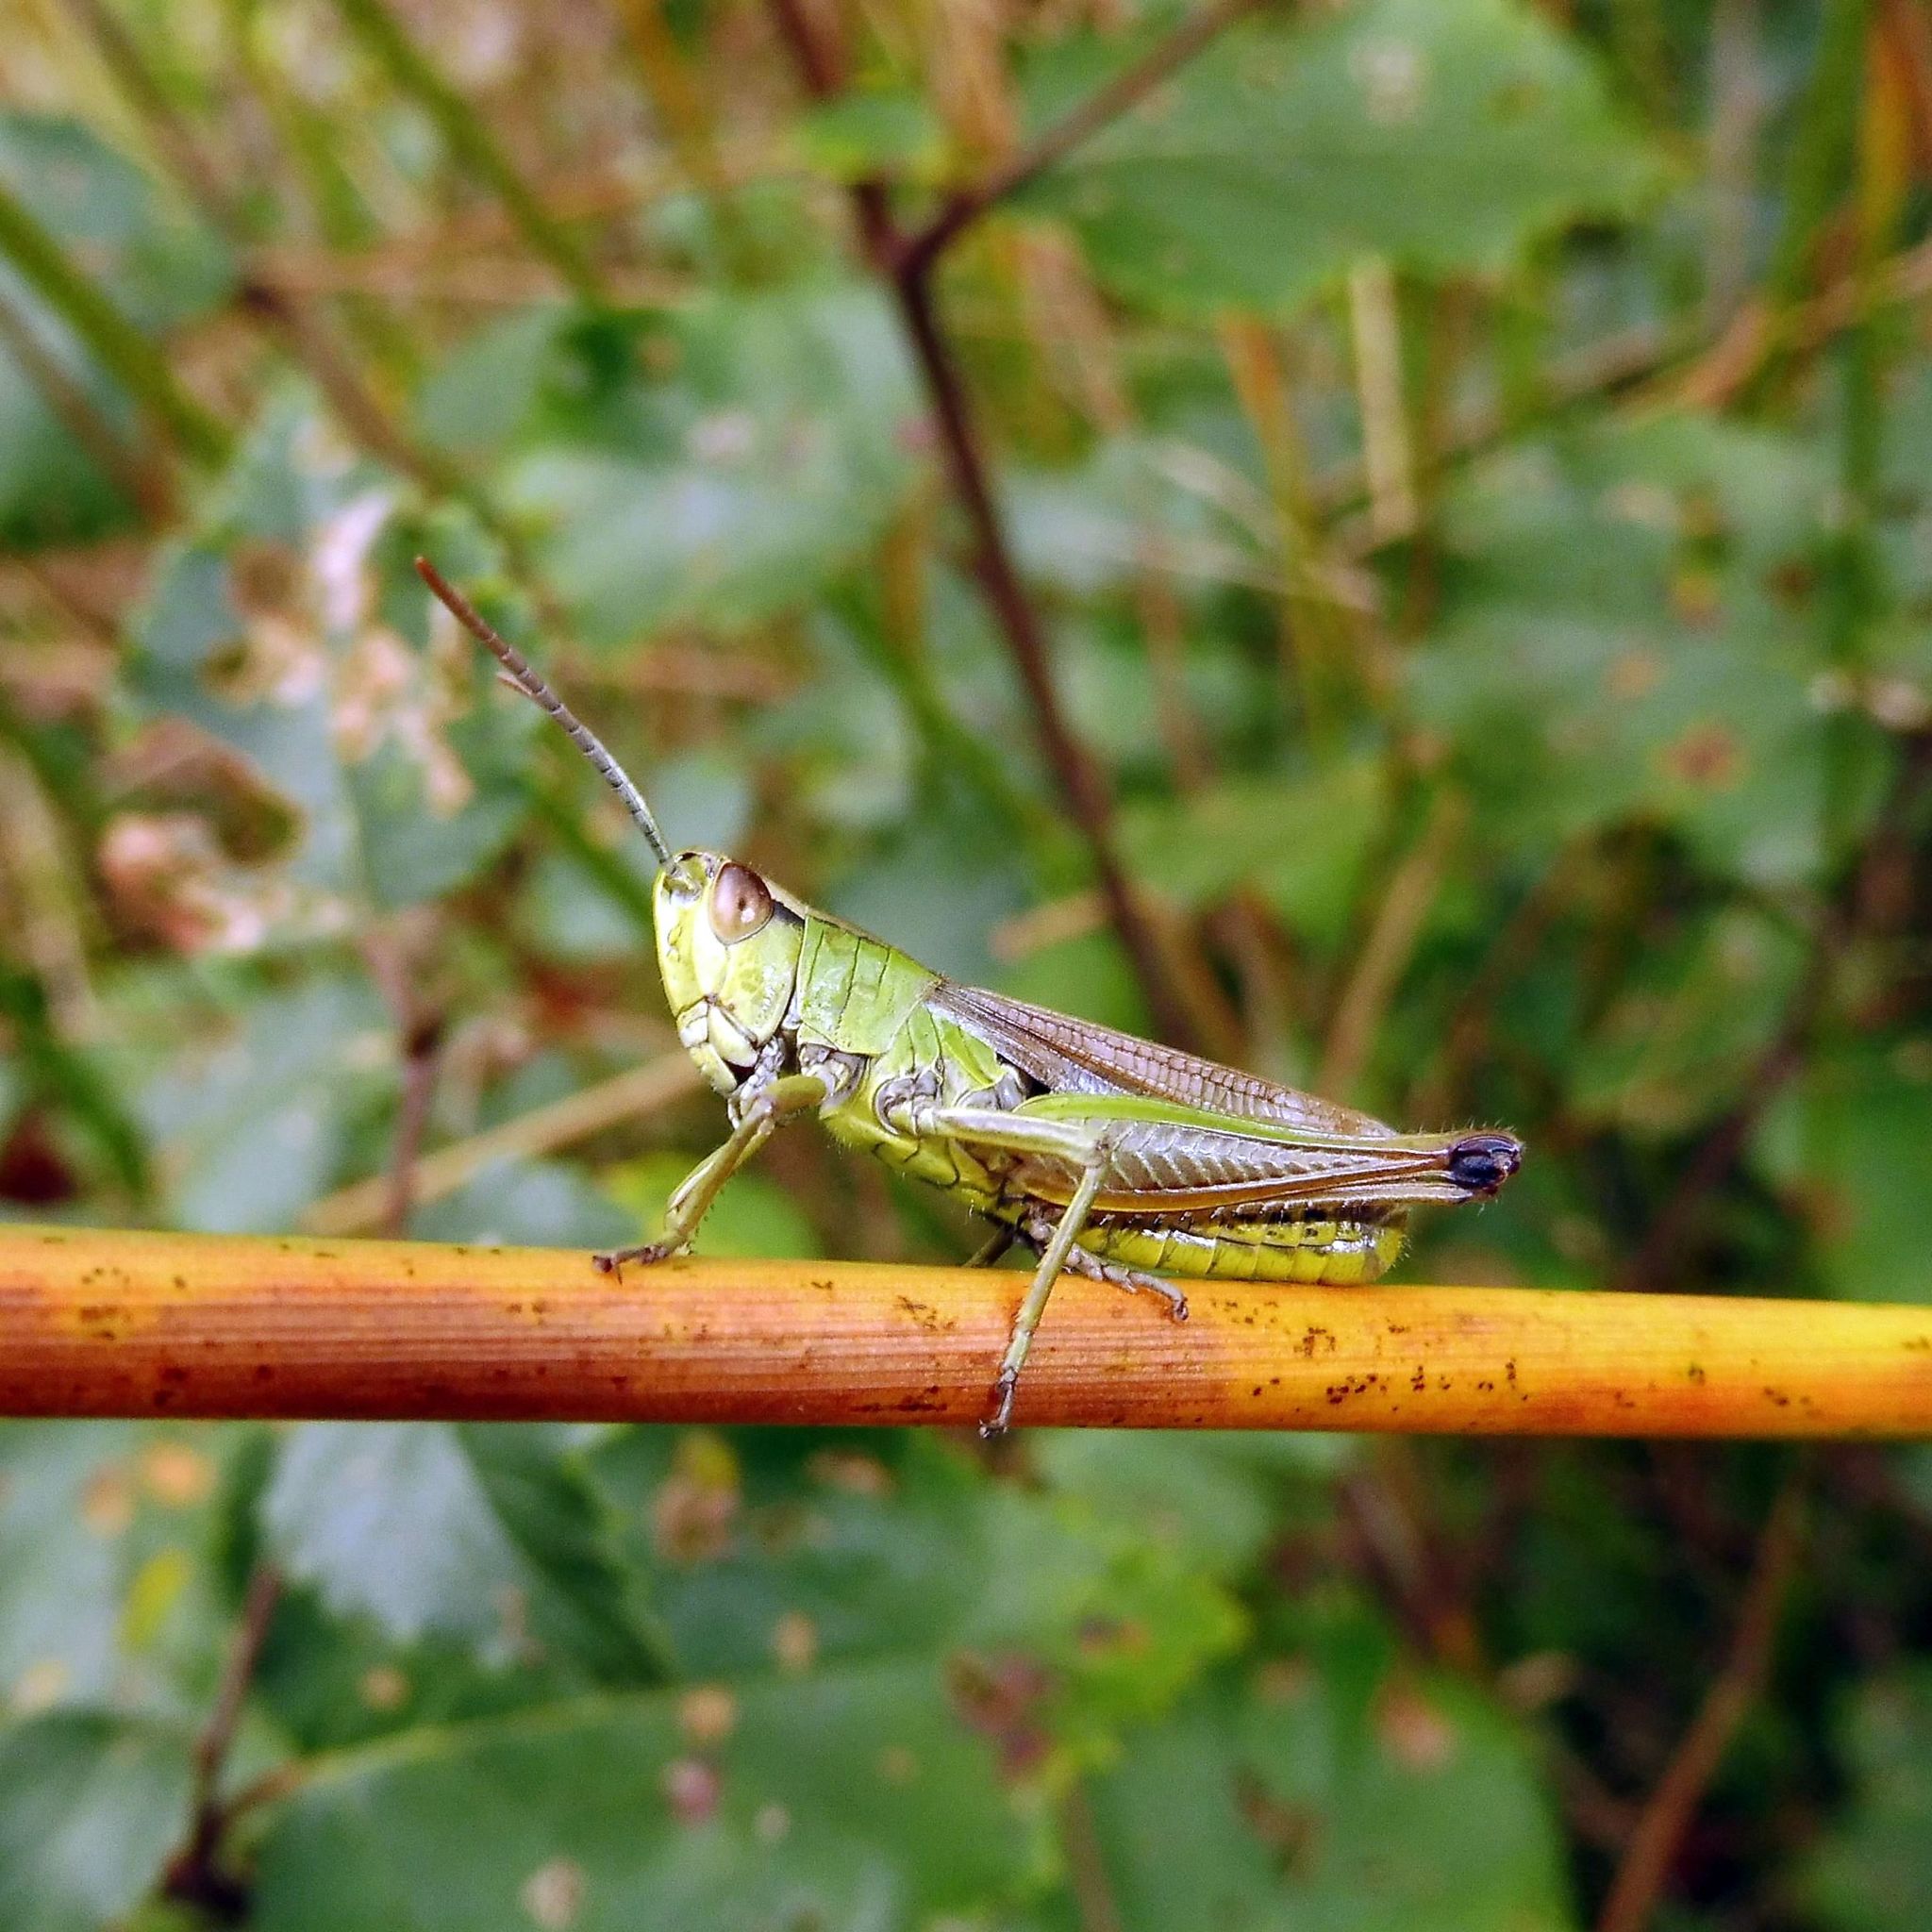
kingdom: Animalia
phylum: Arthropoda
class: Insecta
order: Orthoptera
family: Acrididae
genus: Pseudochorthippus
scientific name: Pseudochorthippus parallelus
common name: Meadow grasshopper
